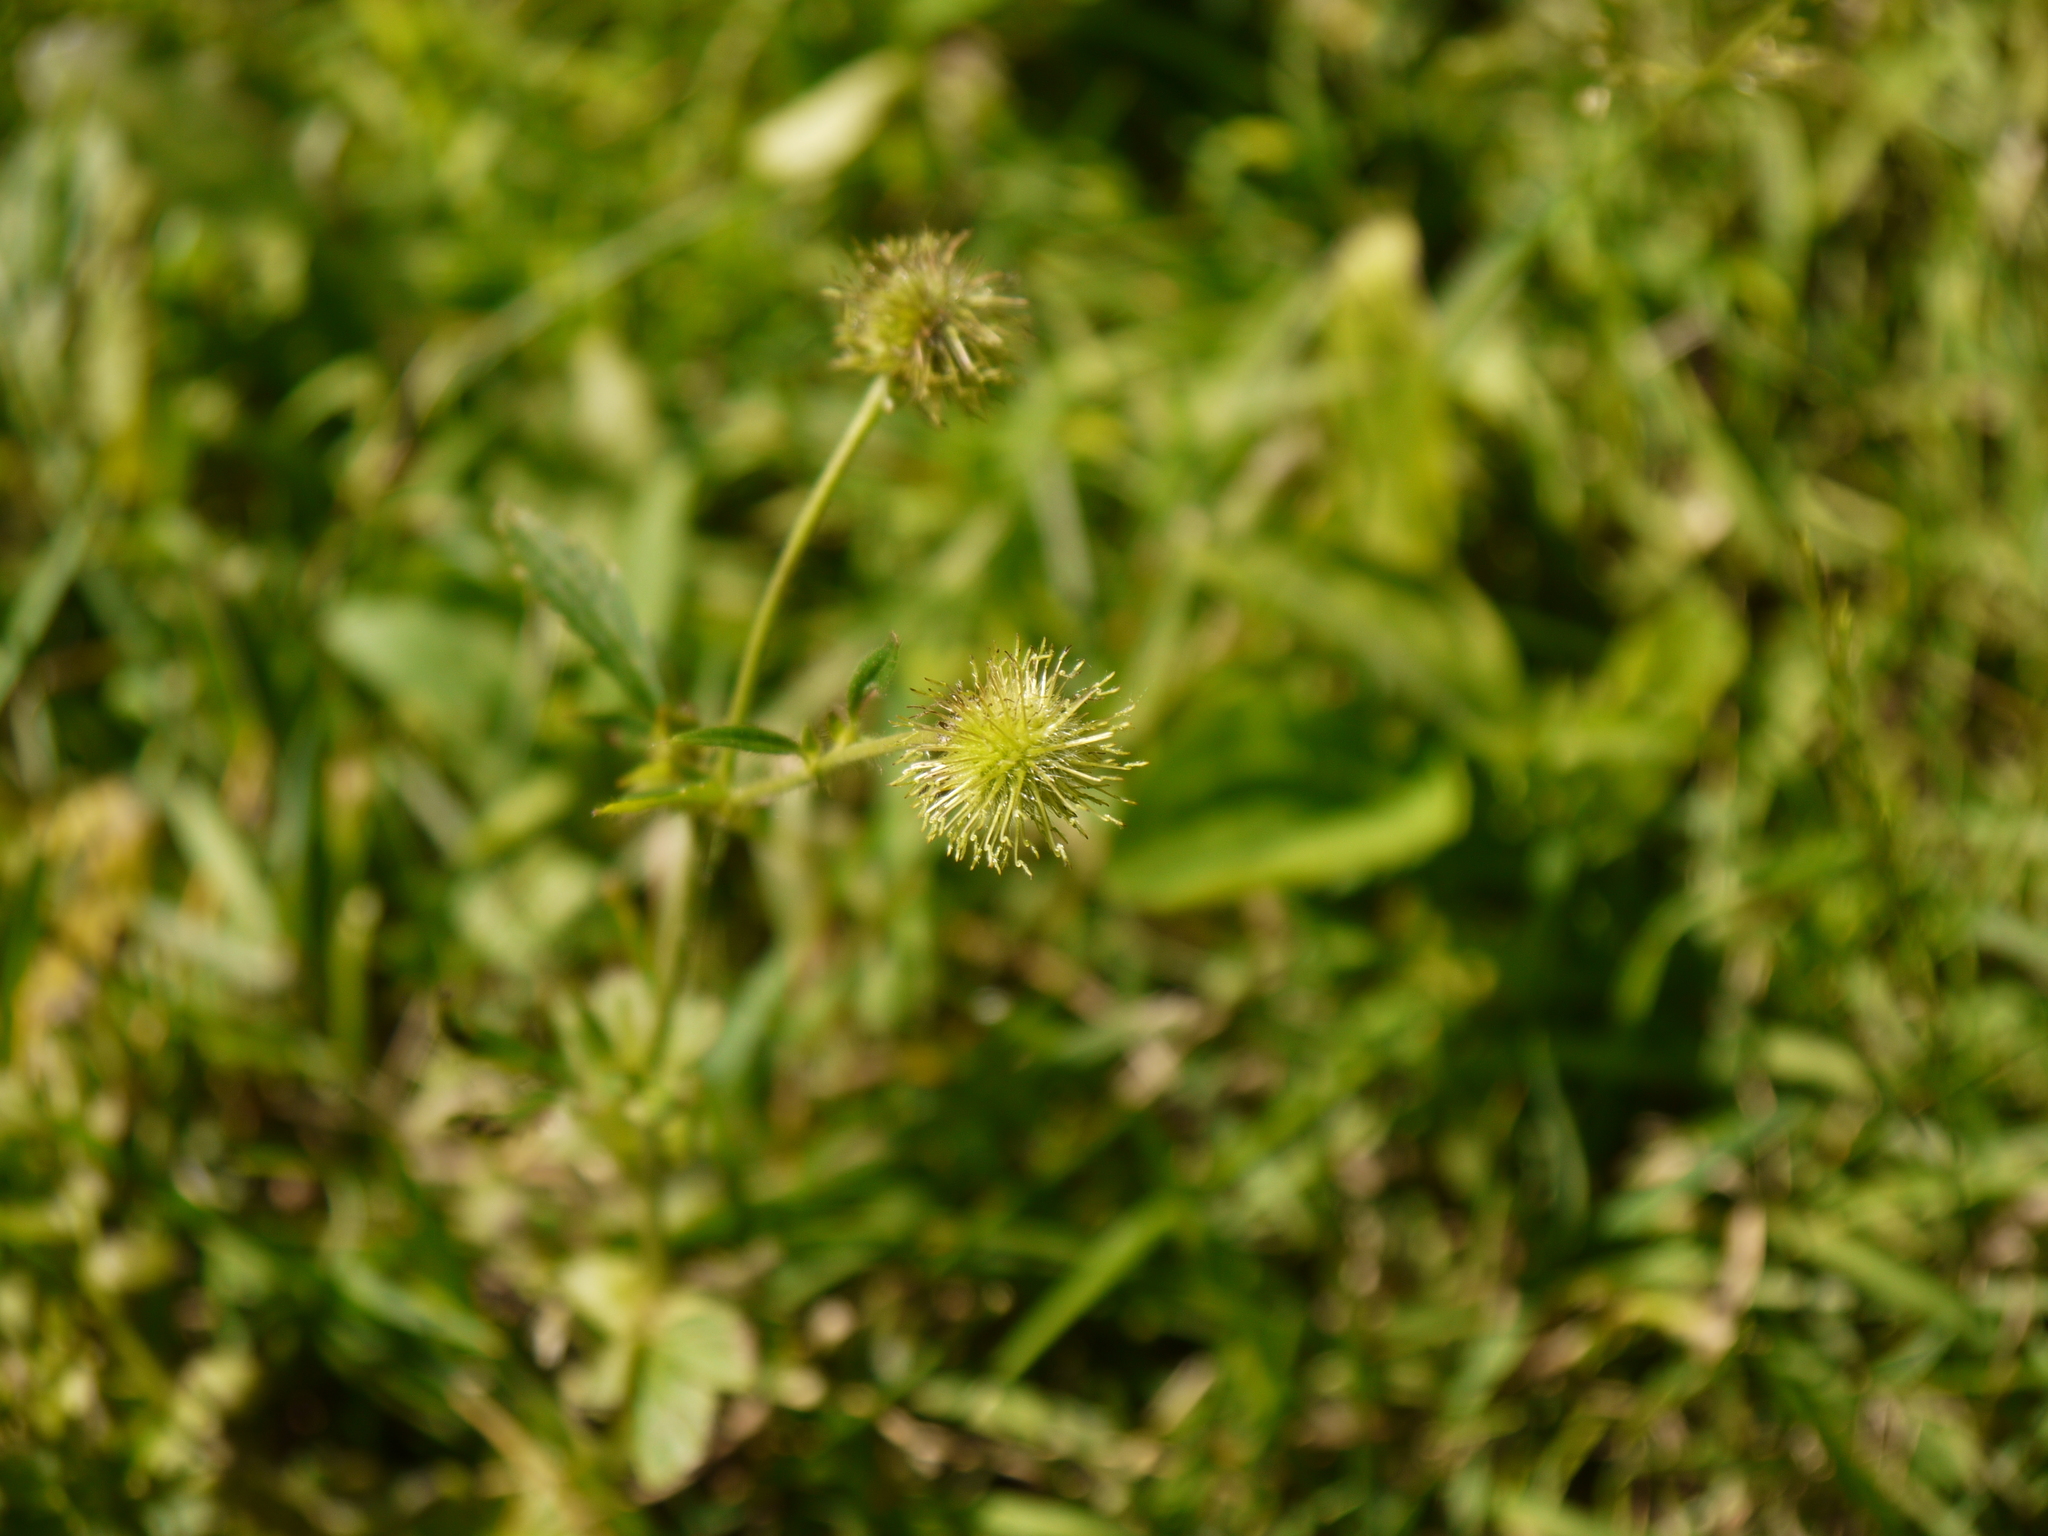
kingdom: Plantae
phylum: Tracheophyta
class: Magnoliopsida
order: Rosales
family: Rosaceae
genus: Geum
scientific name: Geum aleppicum
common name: Yellow avens
